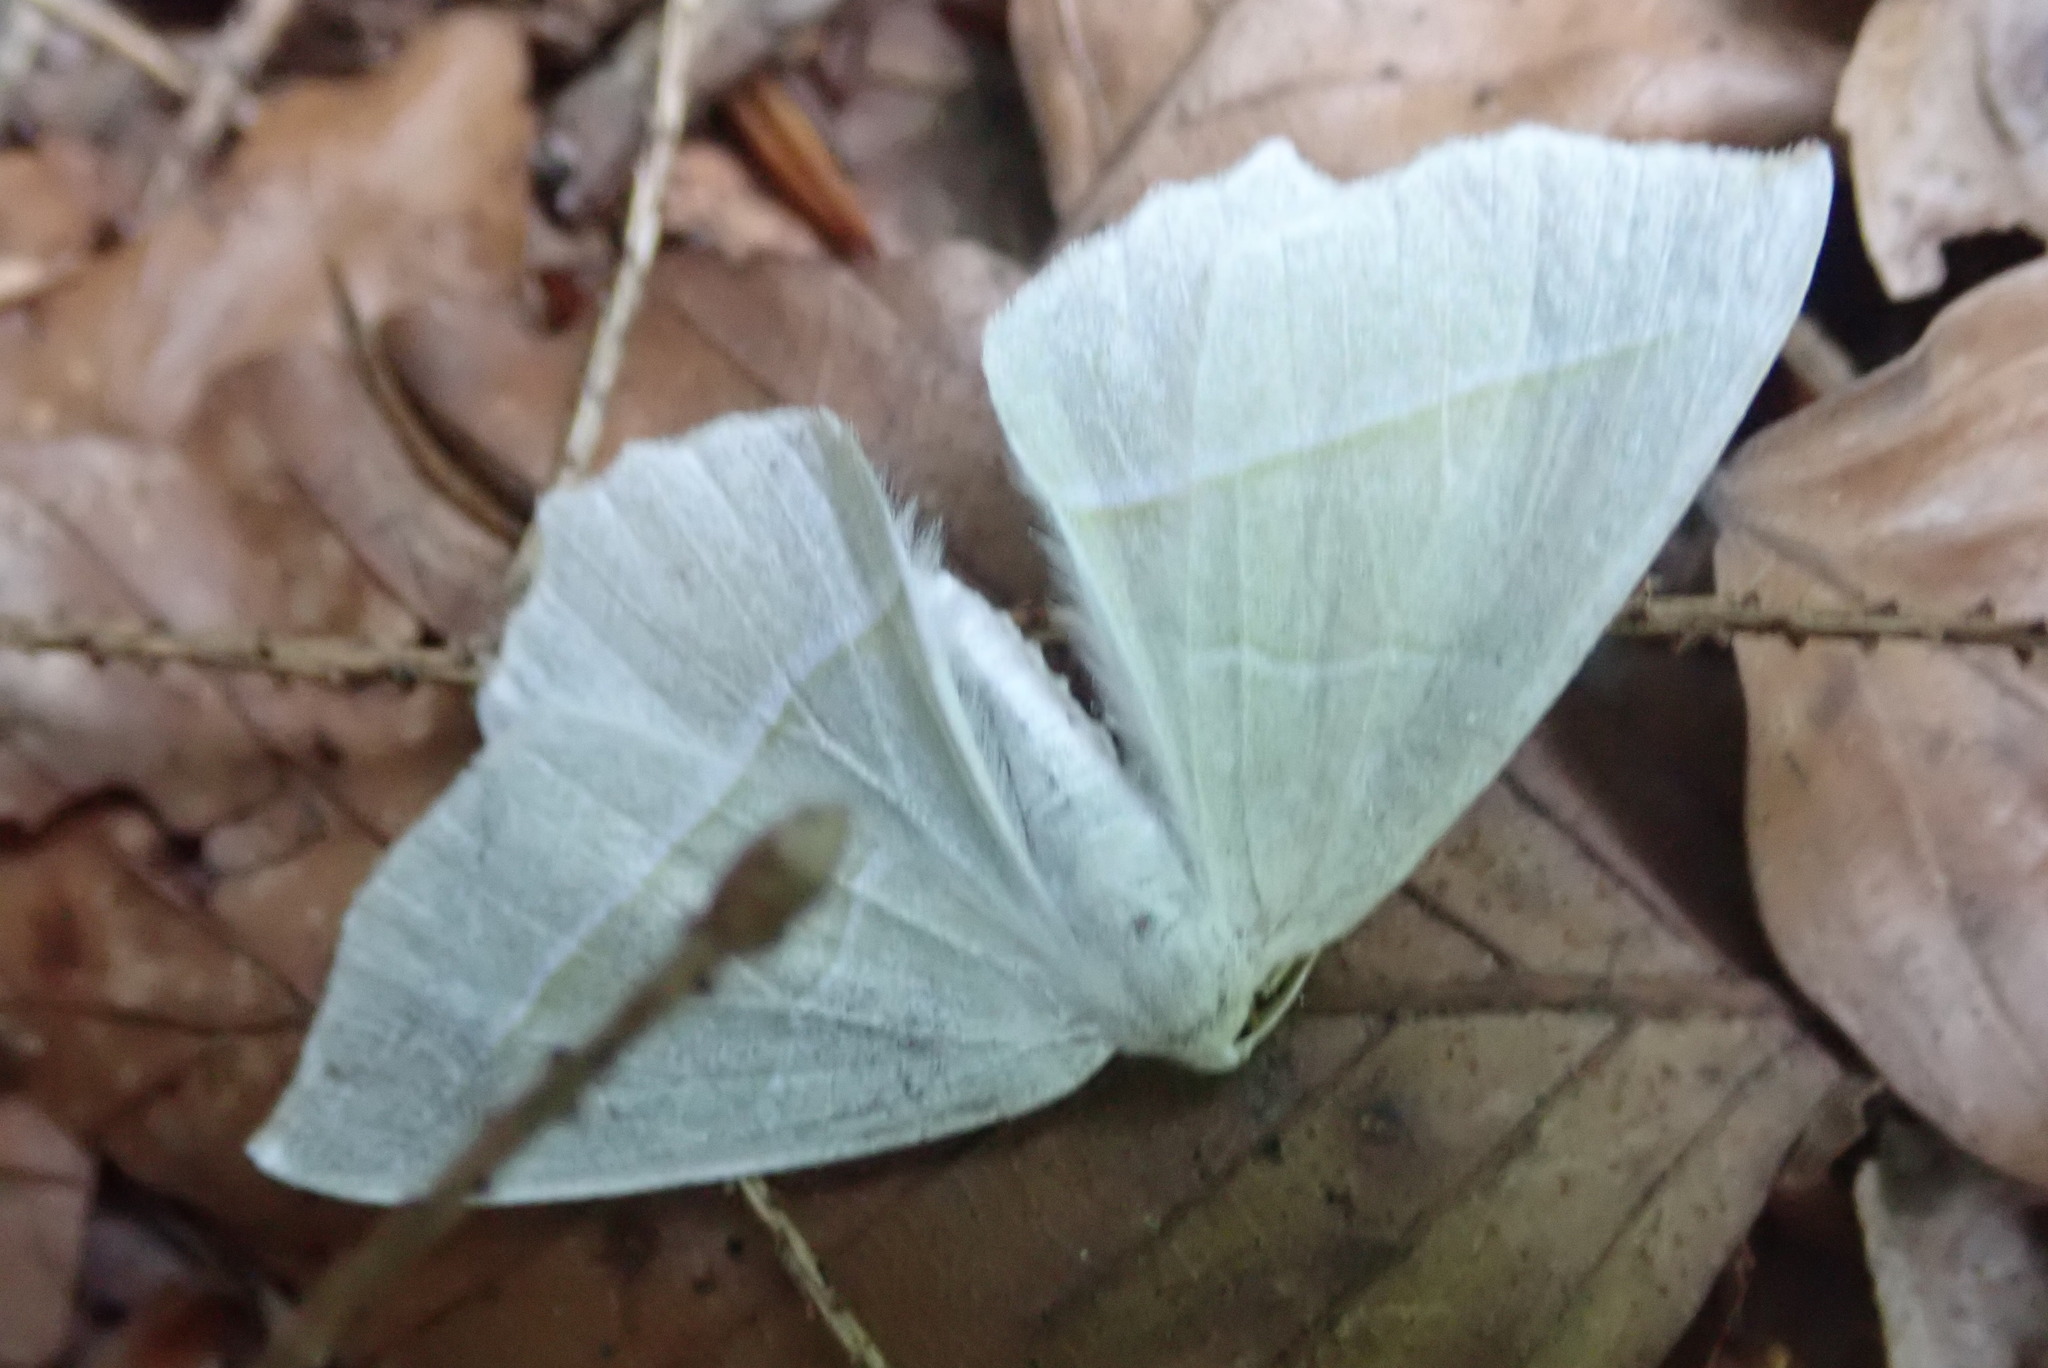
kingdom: Animalia
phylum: Arthropoda
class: Insecta
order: Lepidoptera
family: Geometridae
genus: Campaea
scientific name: Campaea margaritaria
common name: Light emerald
